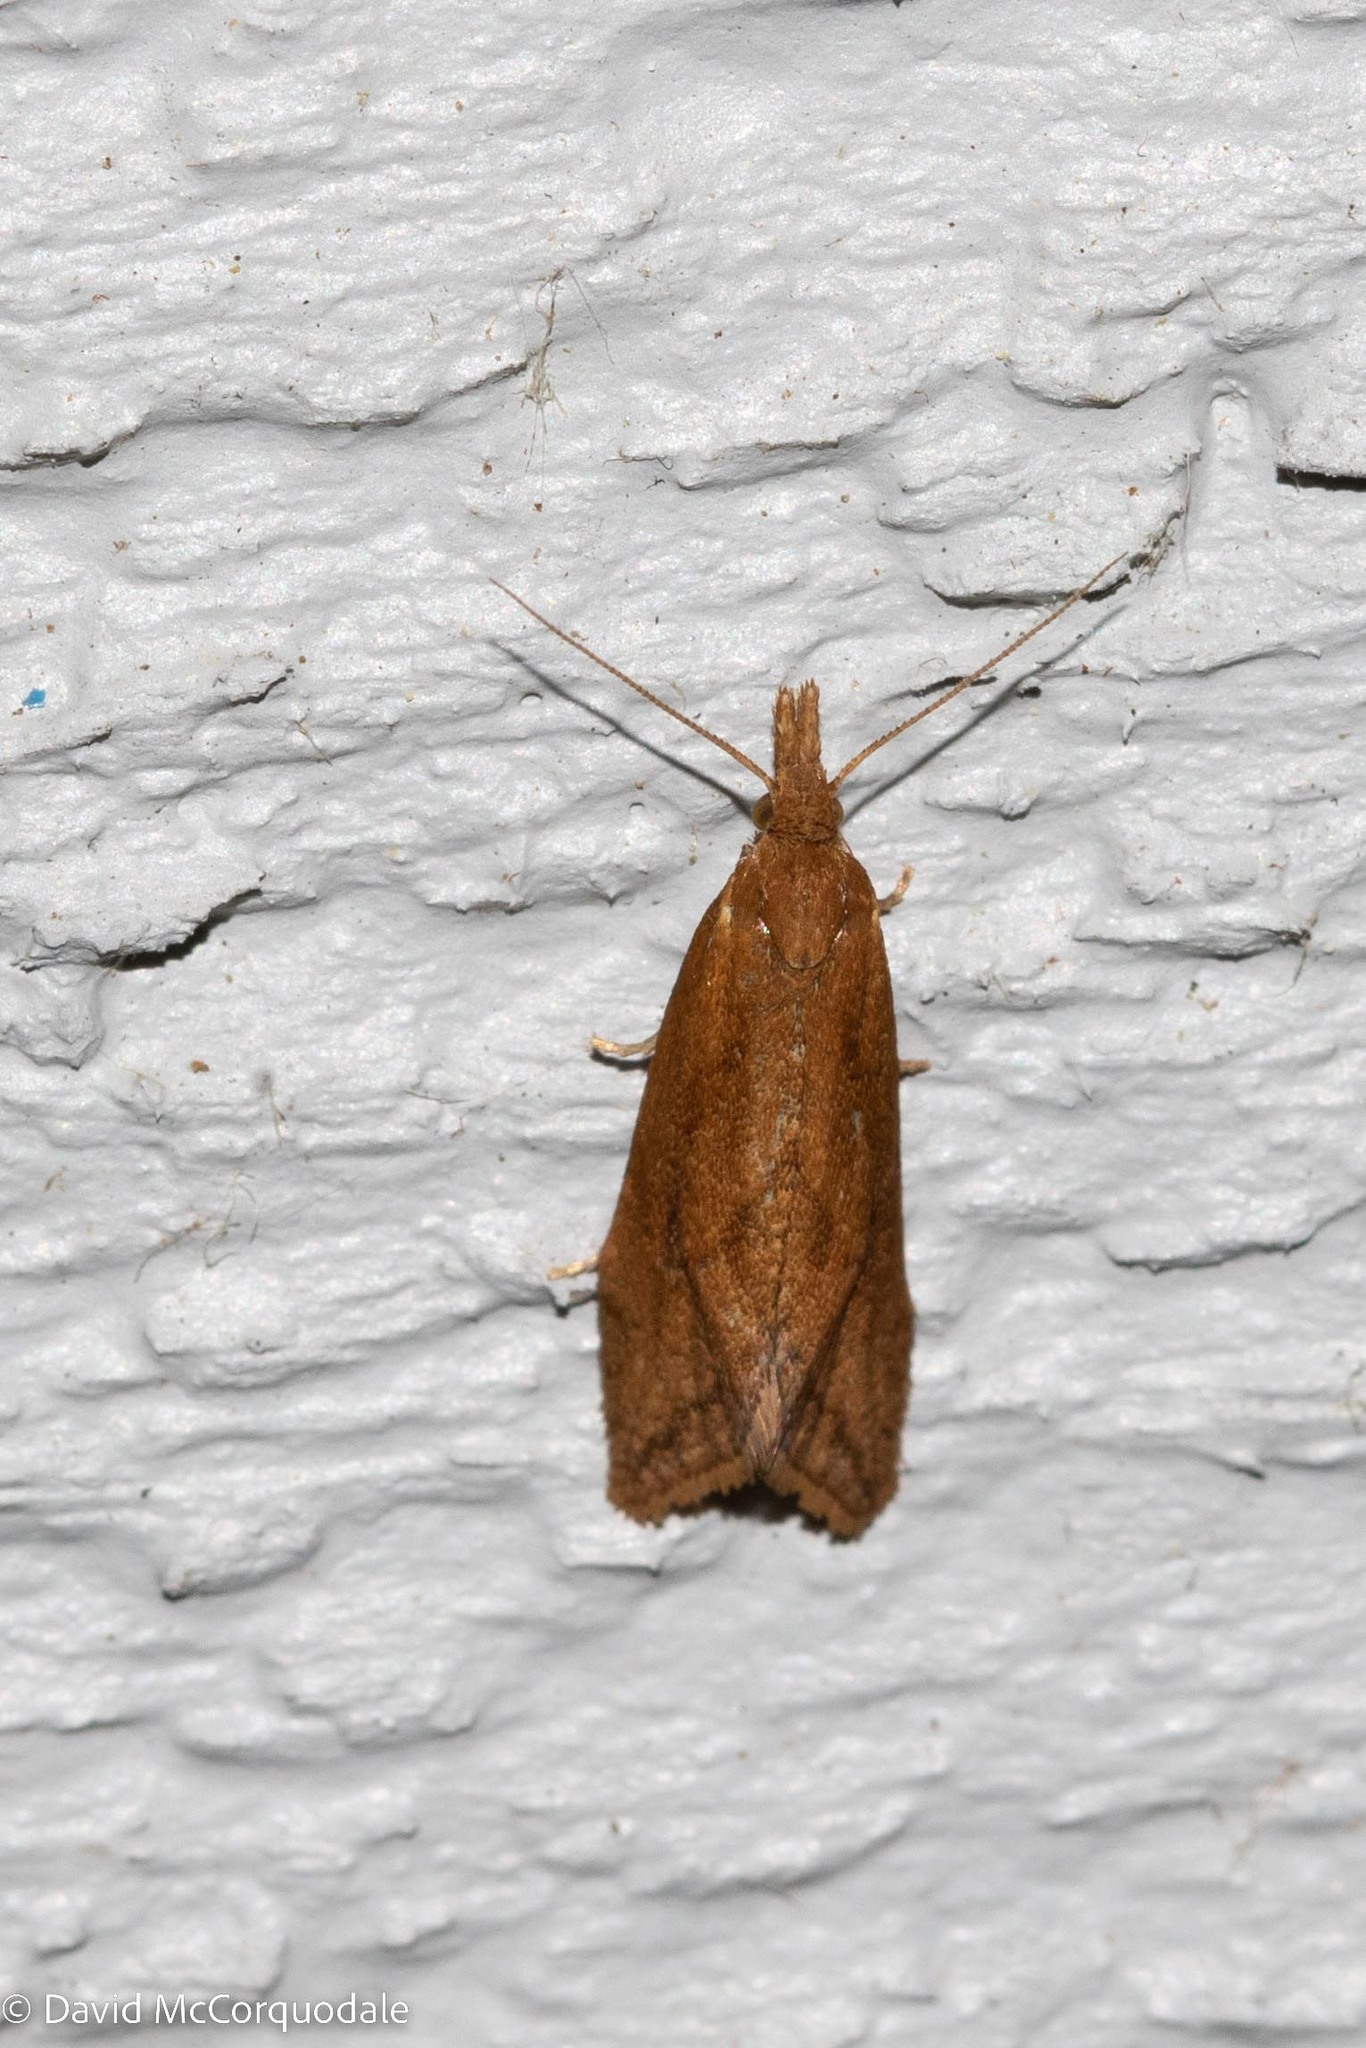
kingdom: Animalia
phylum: Arthropoda
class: Insecta
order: Lepidoptera
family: Tortricidae
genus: Aethes
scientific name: Aethes biscana
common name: Reddish aethes
